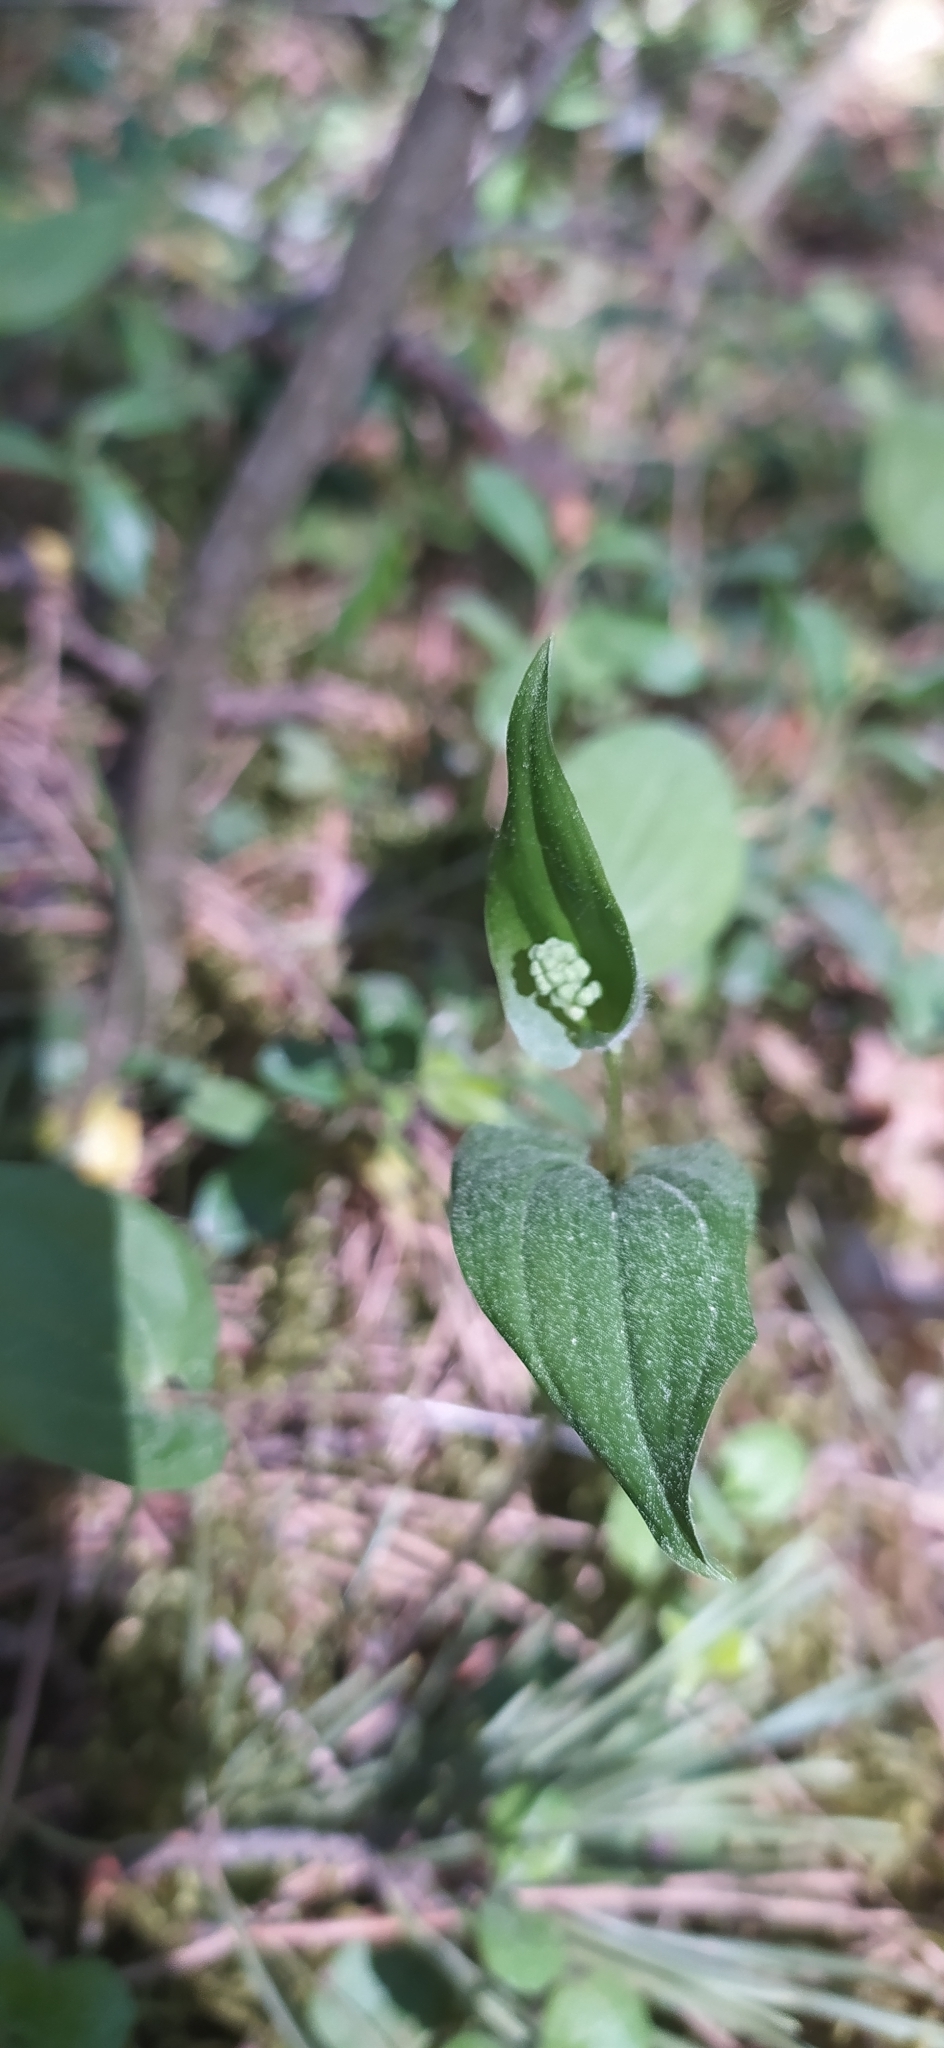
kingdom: Plantae
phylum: Tracheophyta
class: Liliopsida
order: Asparagales
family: Asparagaceae
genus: Maianthemum
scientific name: Maianthemum bifolium
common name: May lily
